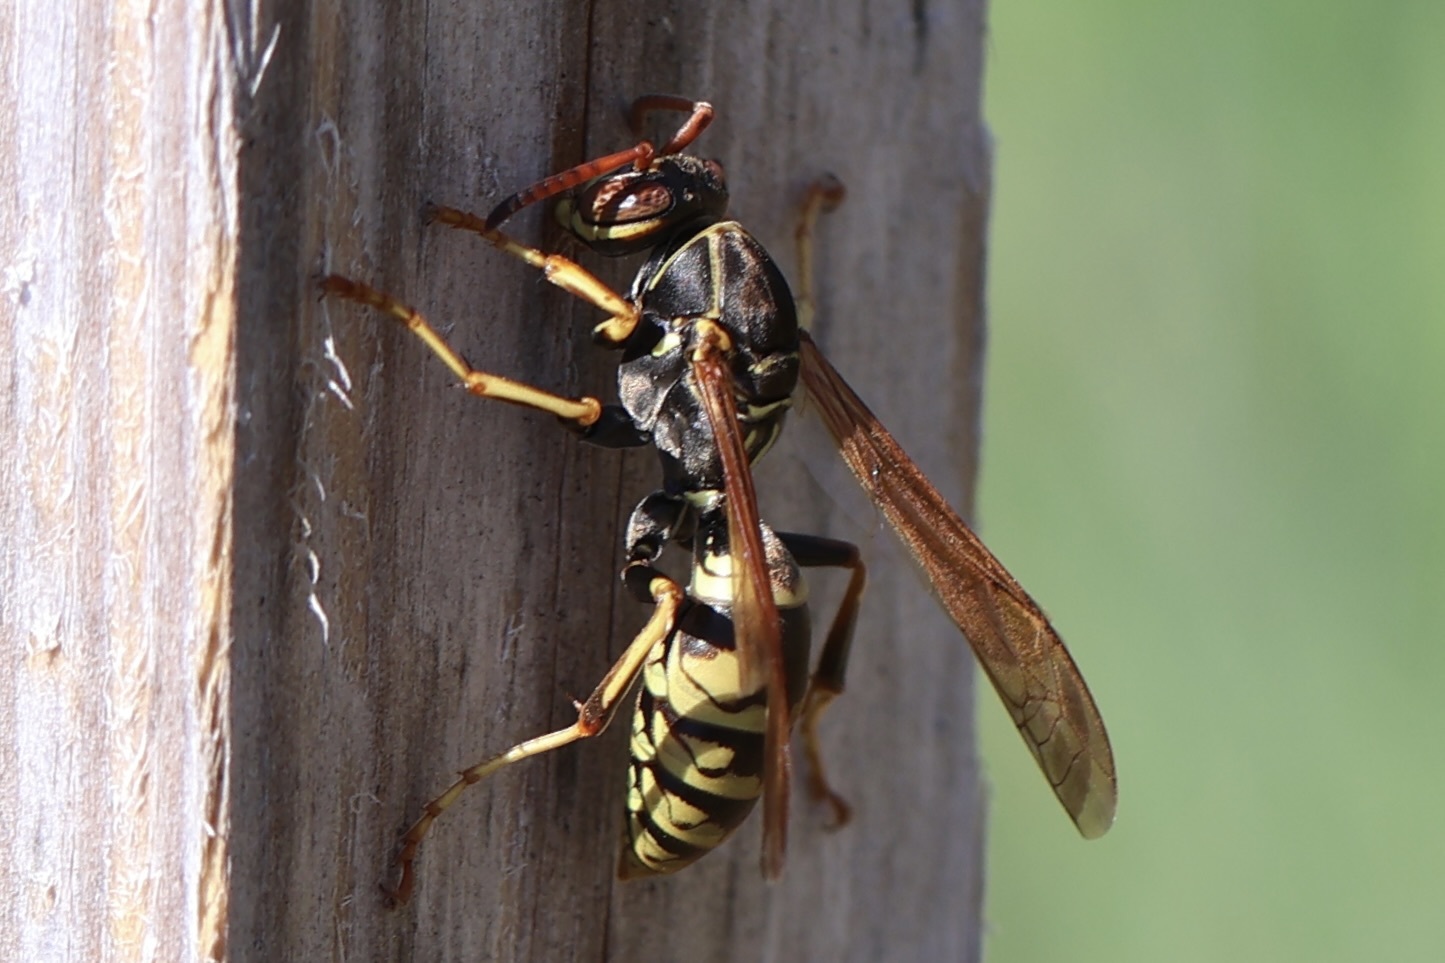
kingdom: Animalia
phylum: Arthropoda
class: Insecta
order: Hymenoptera
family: Eumenidae
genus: Polistes
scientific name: Polistes aurifer
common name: Paper wasp
